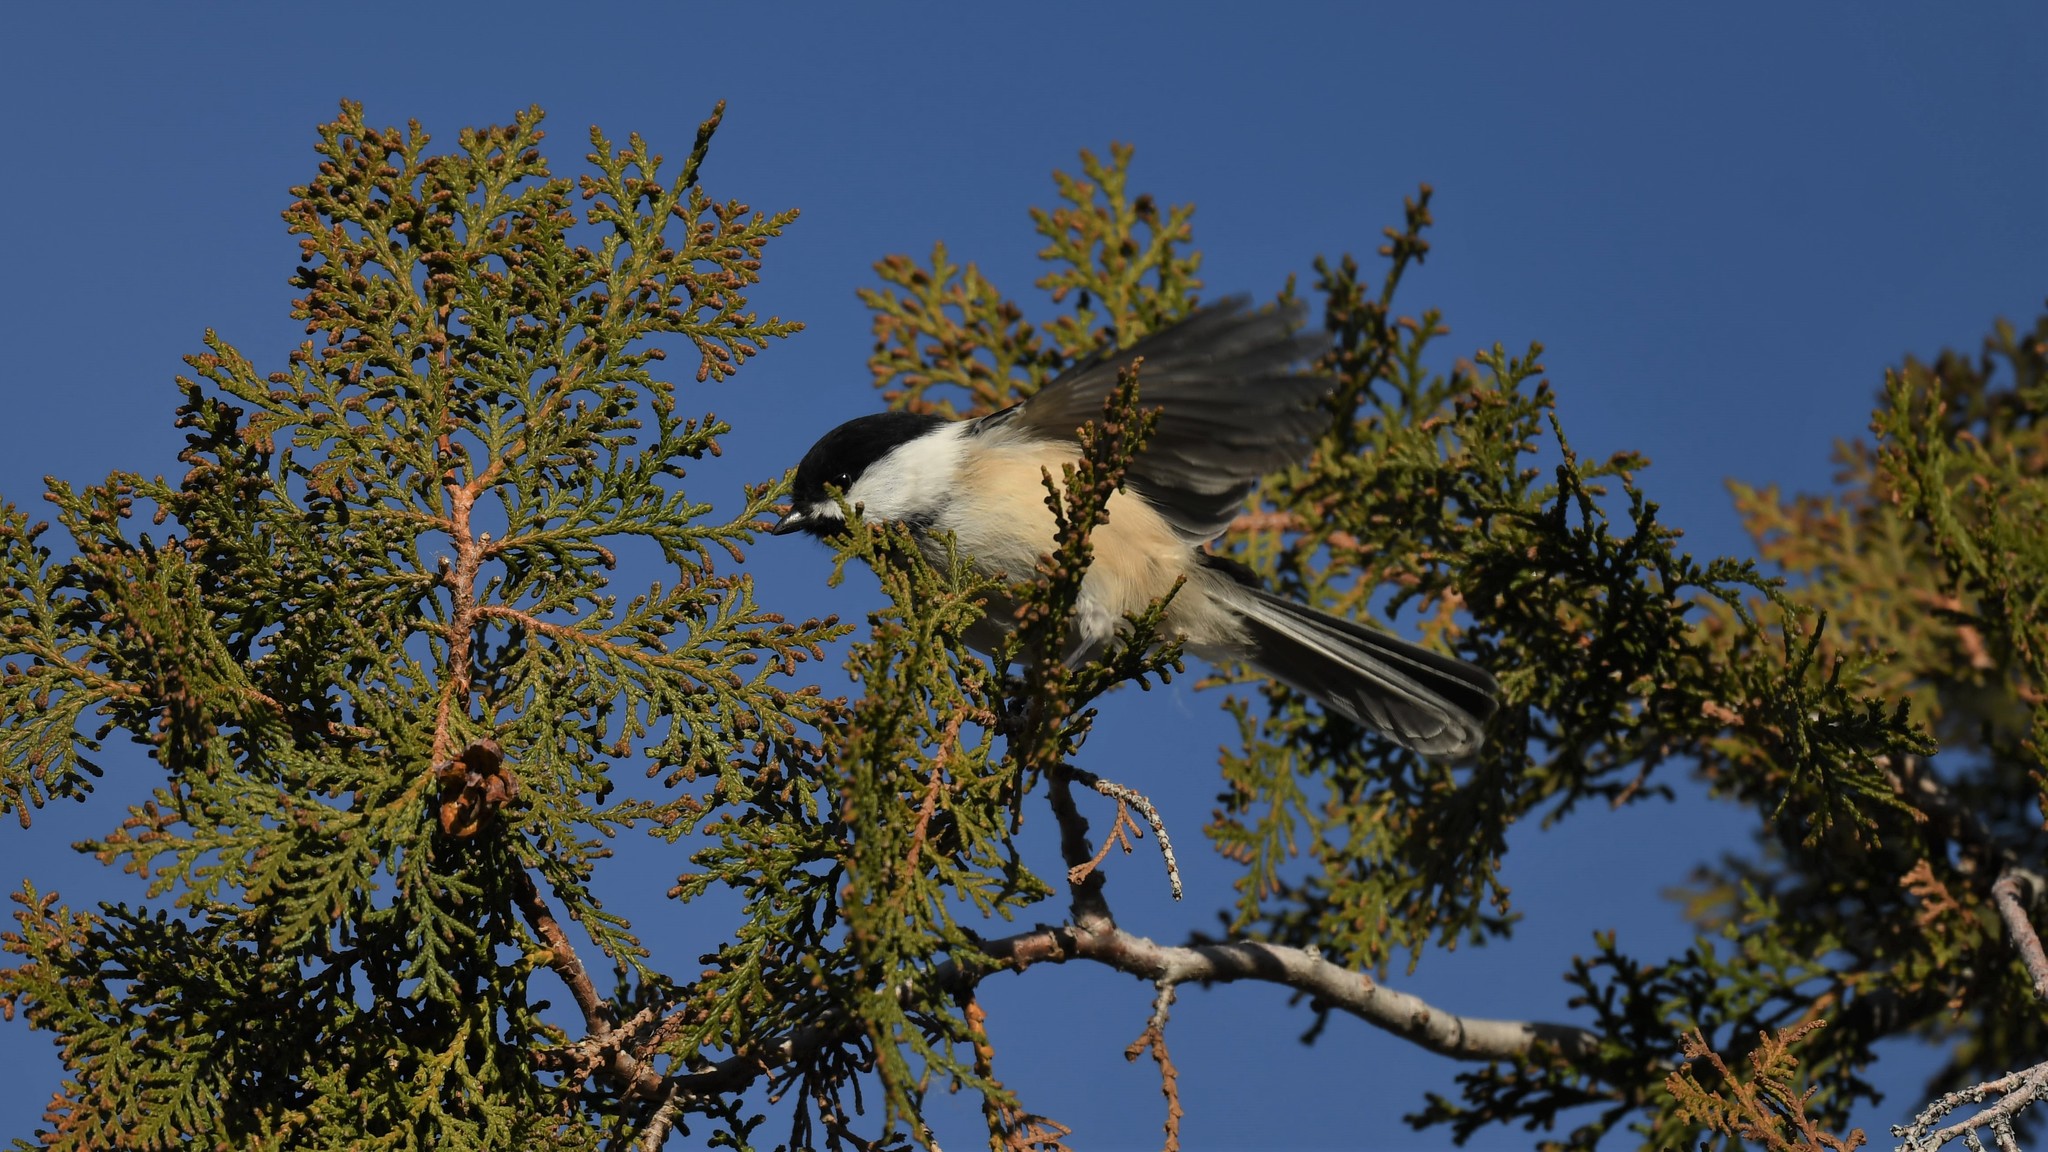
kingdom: Animalia
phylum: Chordata
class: Aves
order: Passeriformes
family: Paridae
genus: Poecile
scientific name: Poecile atricapillus
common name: Black-capped chickadee
